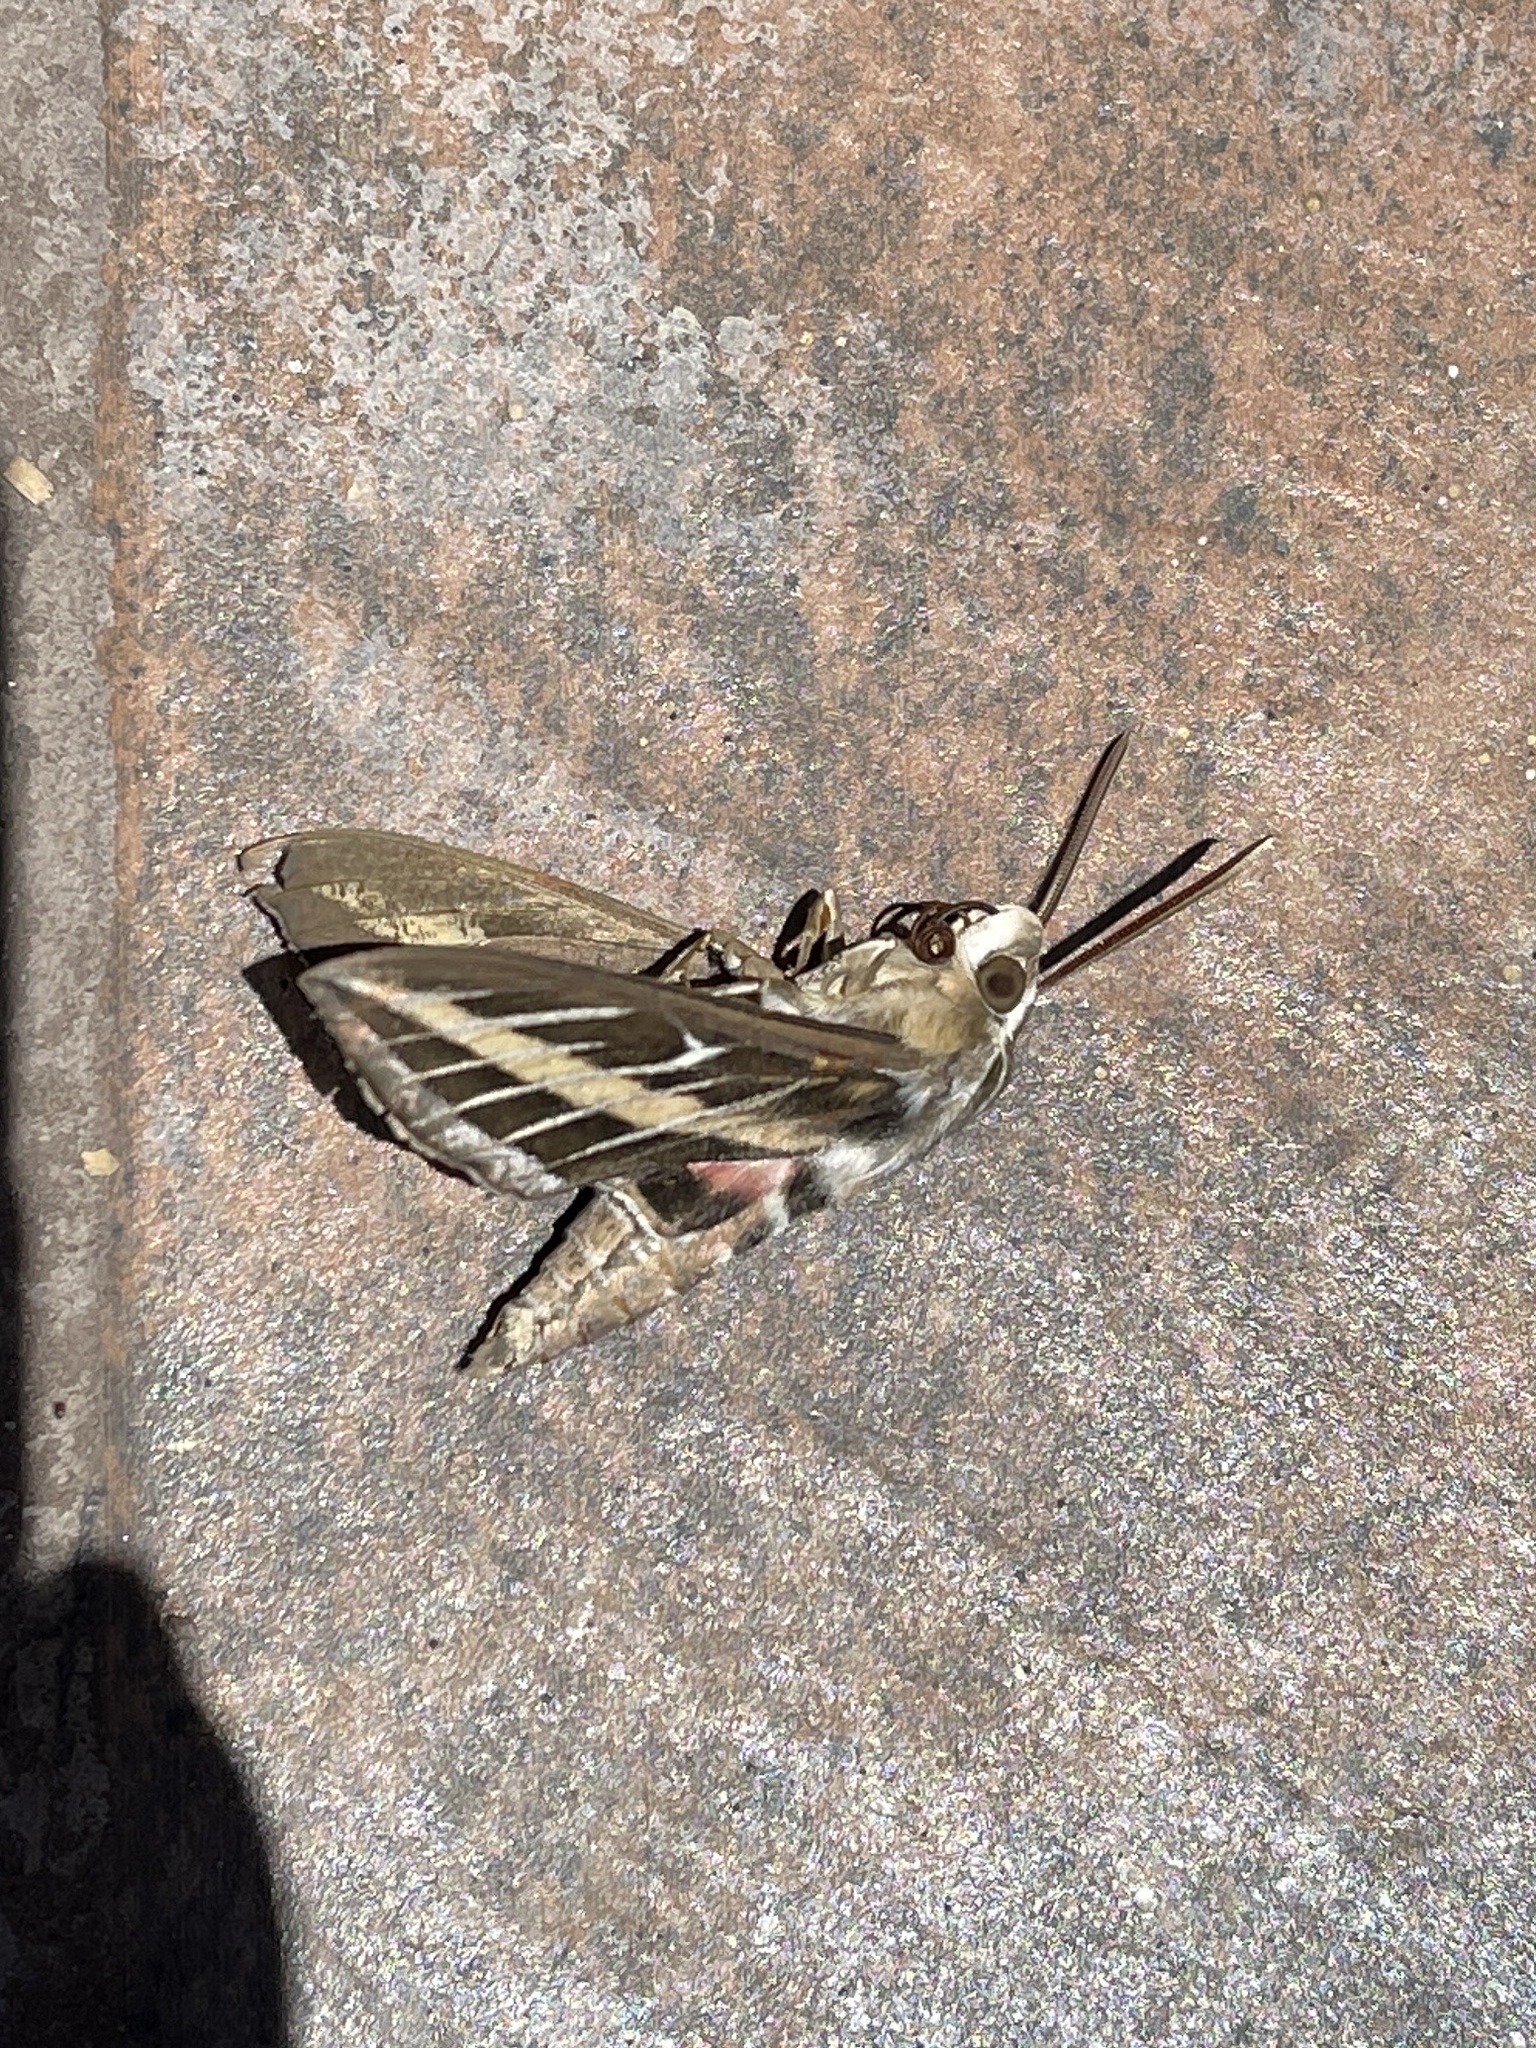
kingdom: Animalia
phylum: Arthropoda
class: Insecta
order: Lepidoptera
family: Sphingidae
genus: Hyles
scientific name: Hyles lineata
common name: White-lined sphinx
